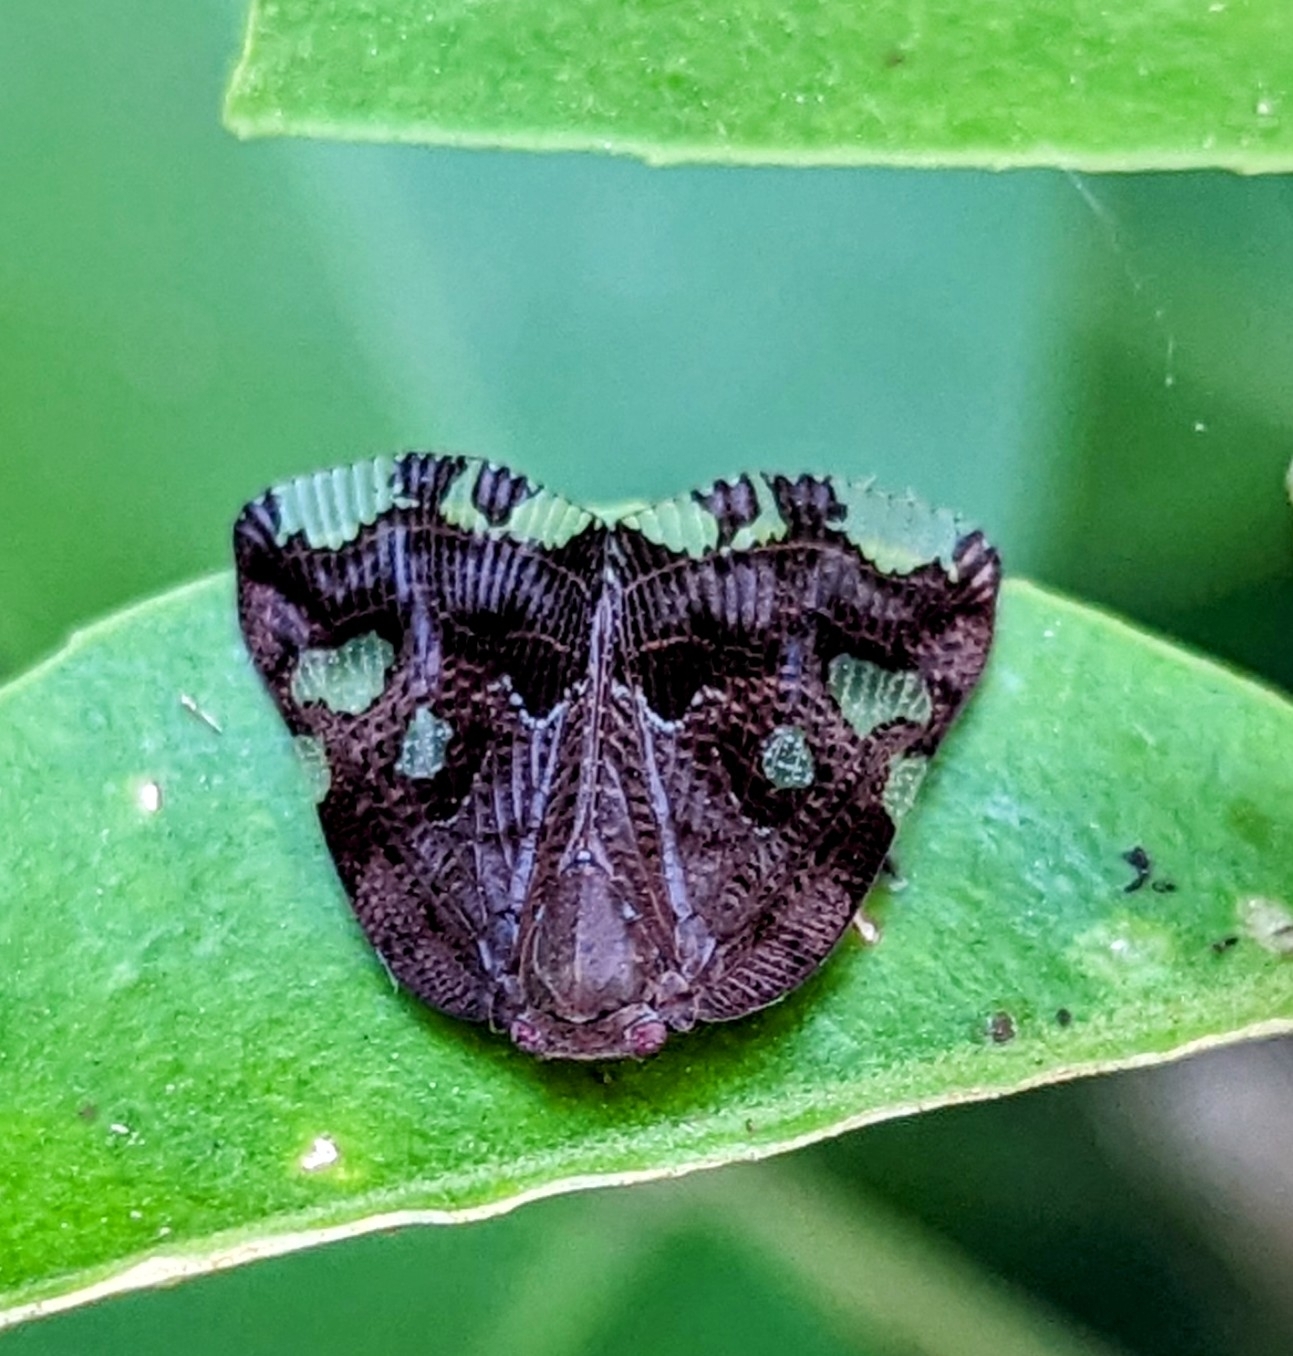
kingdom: Animalia
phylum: Arthropoda
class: Insecta
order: Hemiptera
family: Ricaniidae
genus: Ricania
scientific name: Ricania speculum
